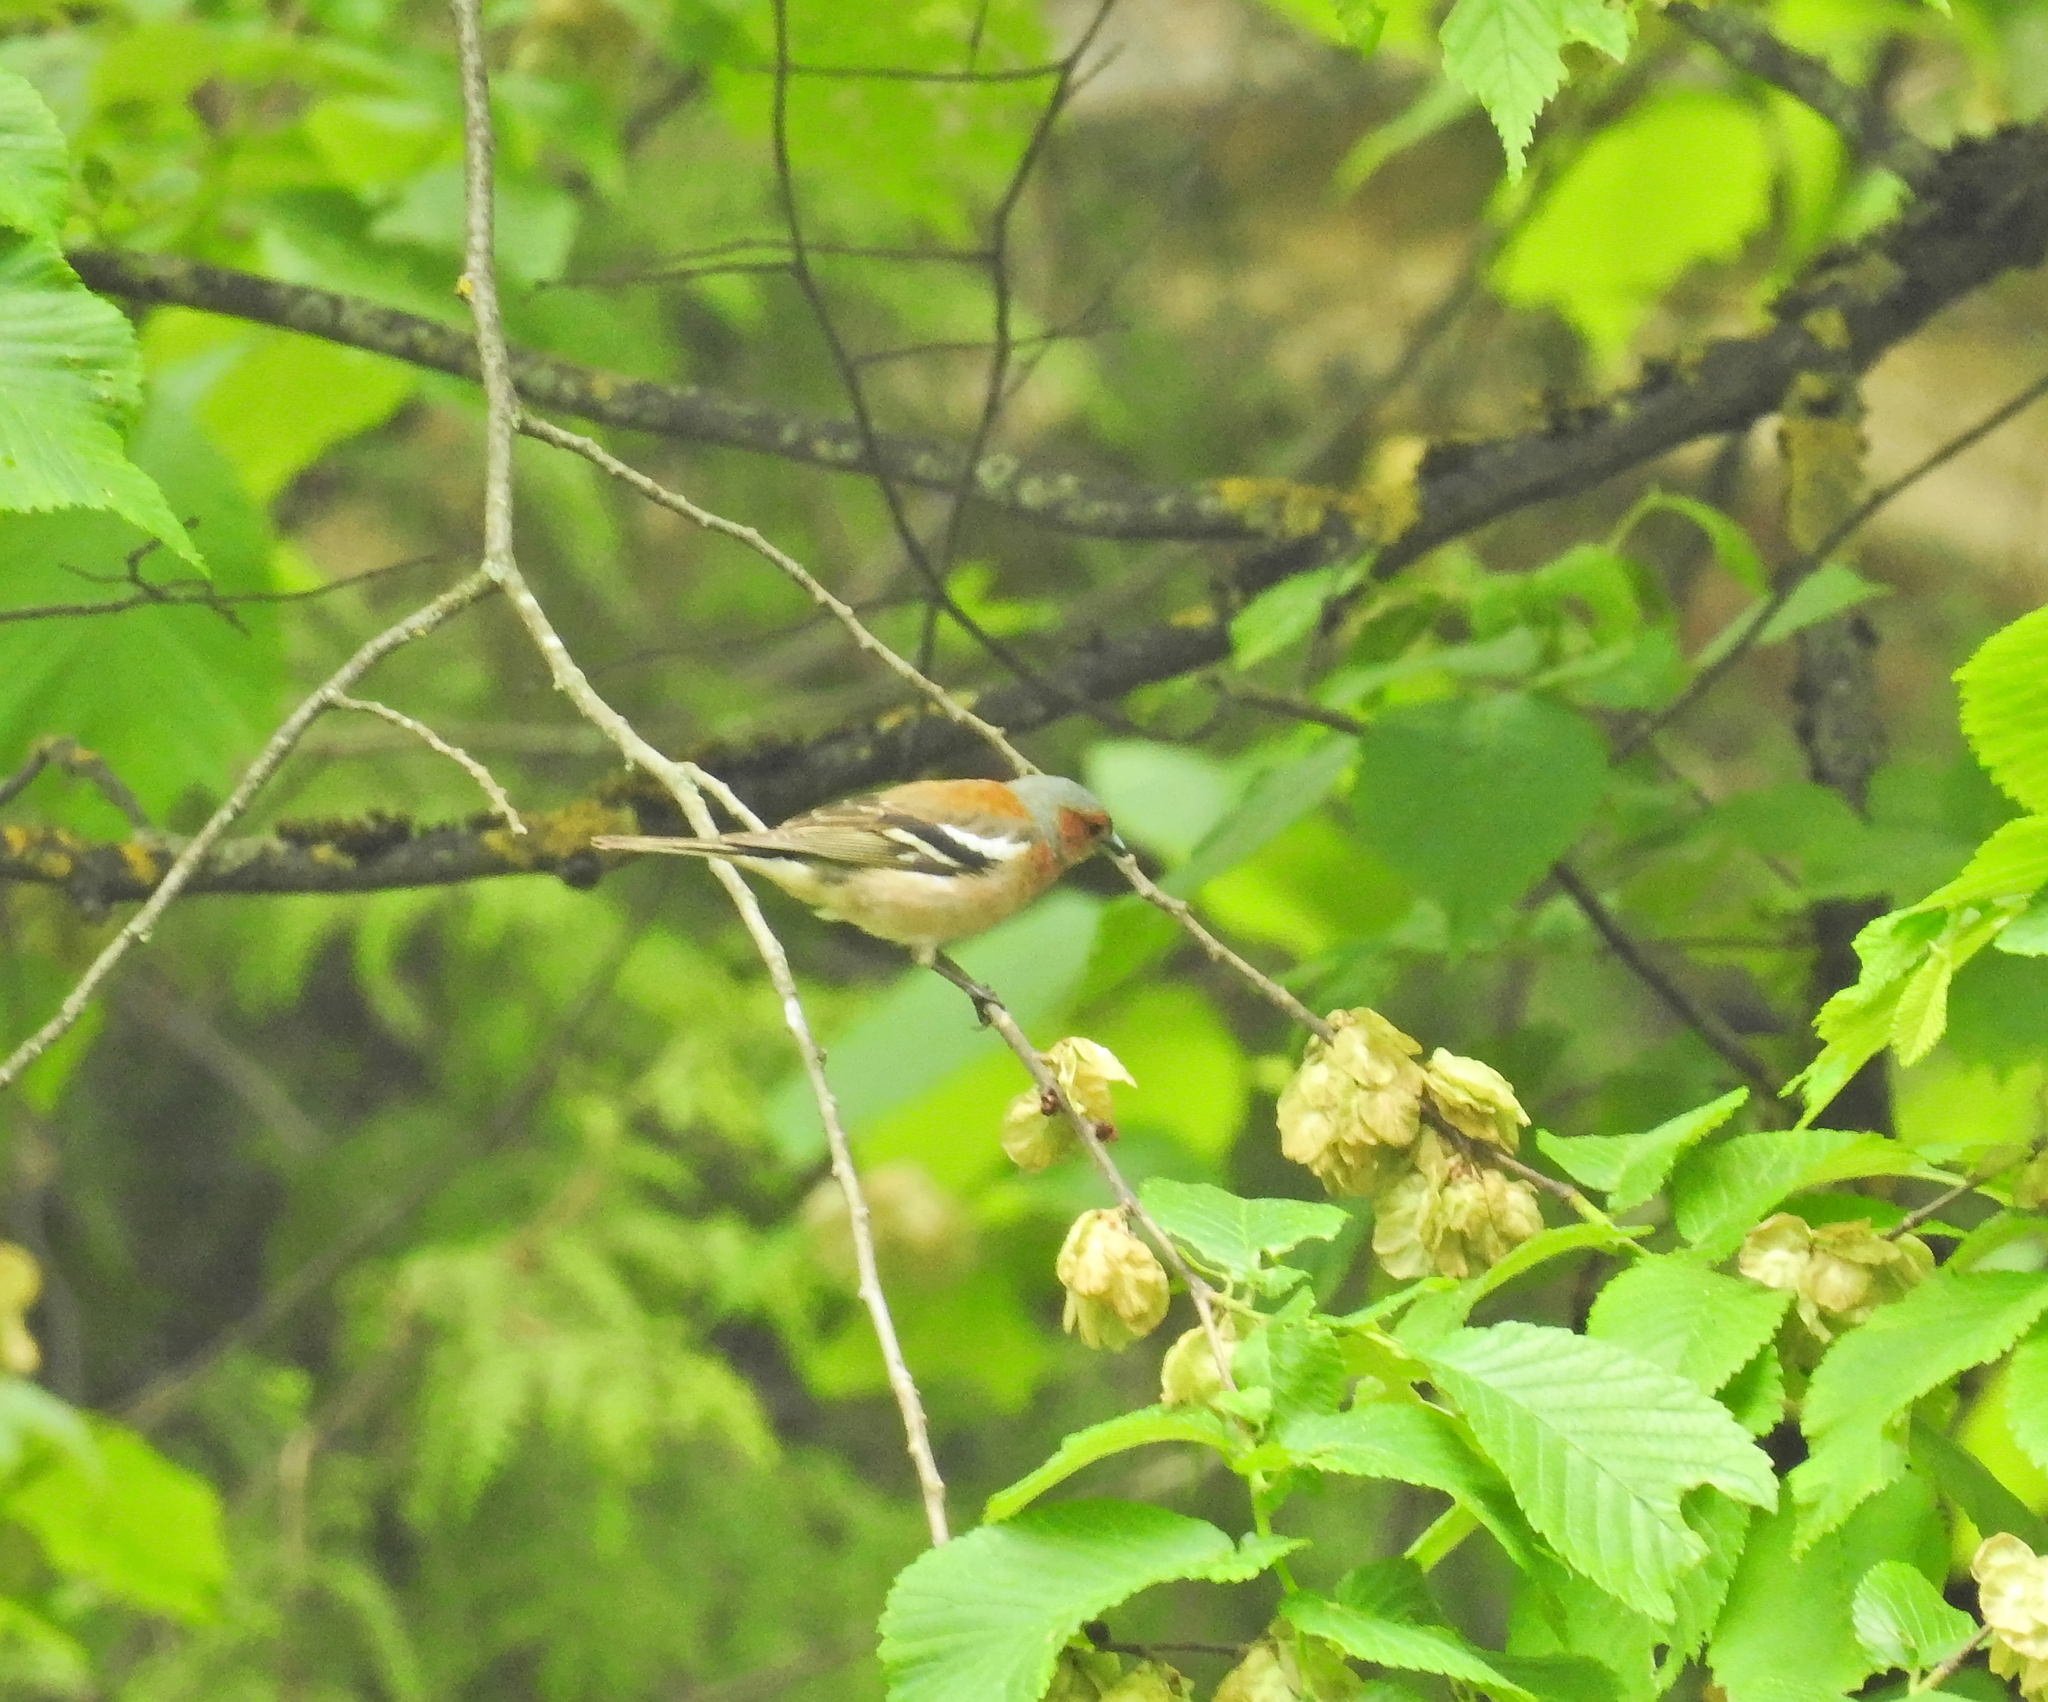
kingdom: Animalia
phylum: Chordata
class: Aves
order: Passeriformes
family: Fringillidae
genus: Fringilla
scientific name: Fringilla coelebs
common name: Common chaffinch
